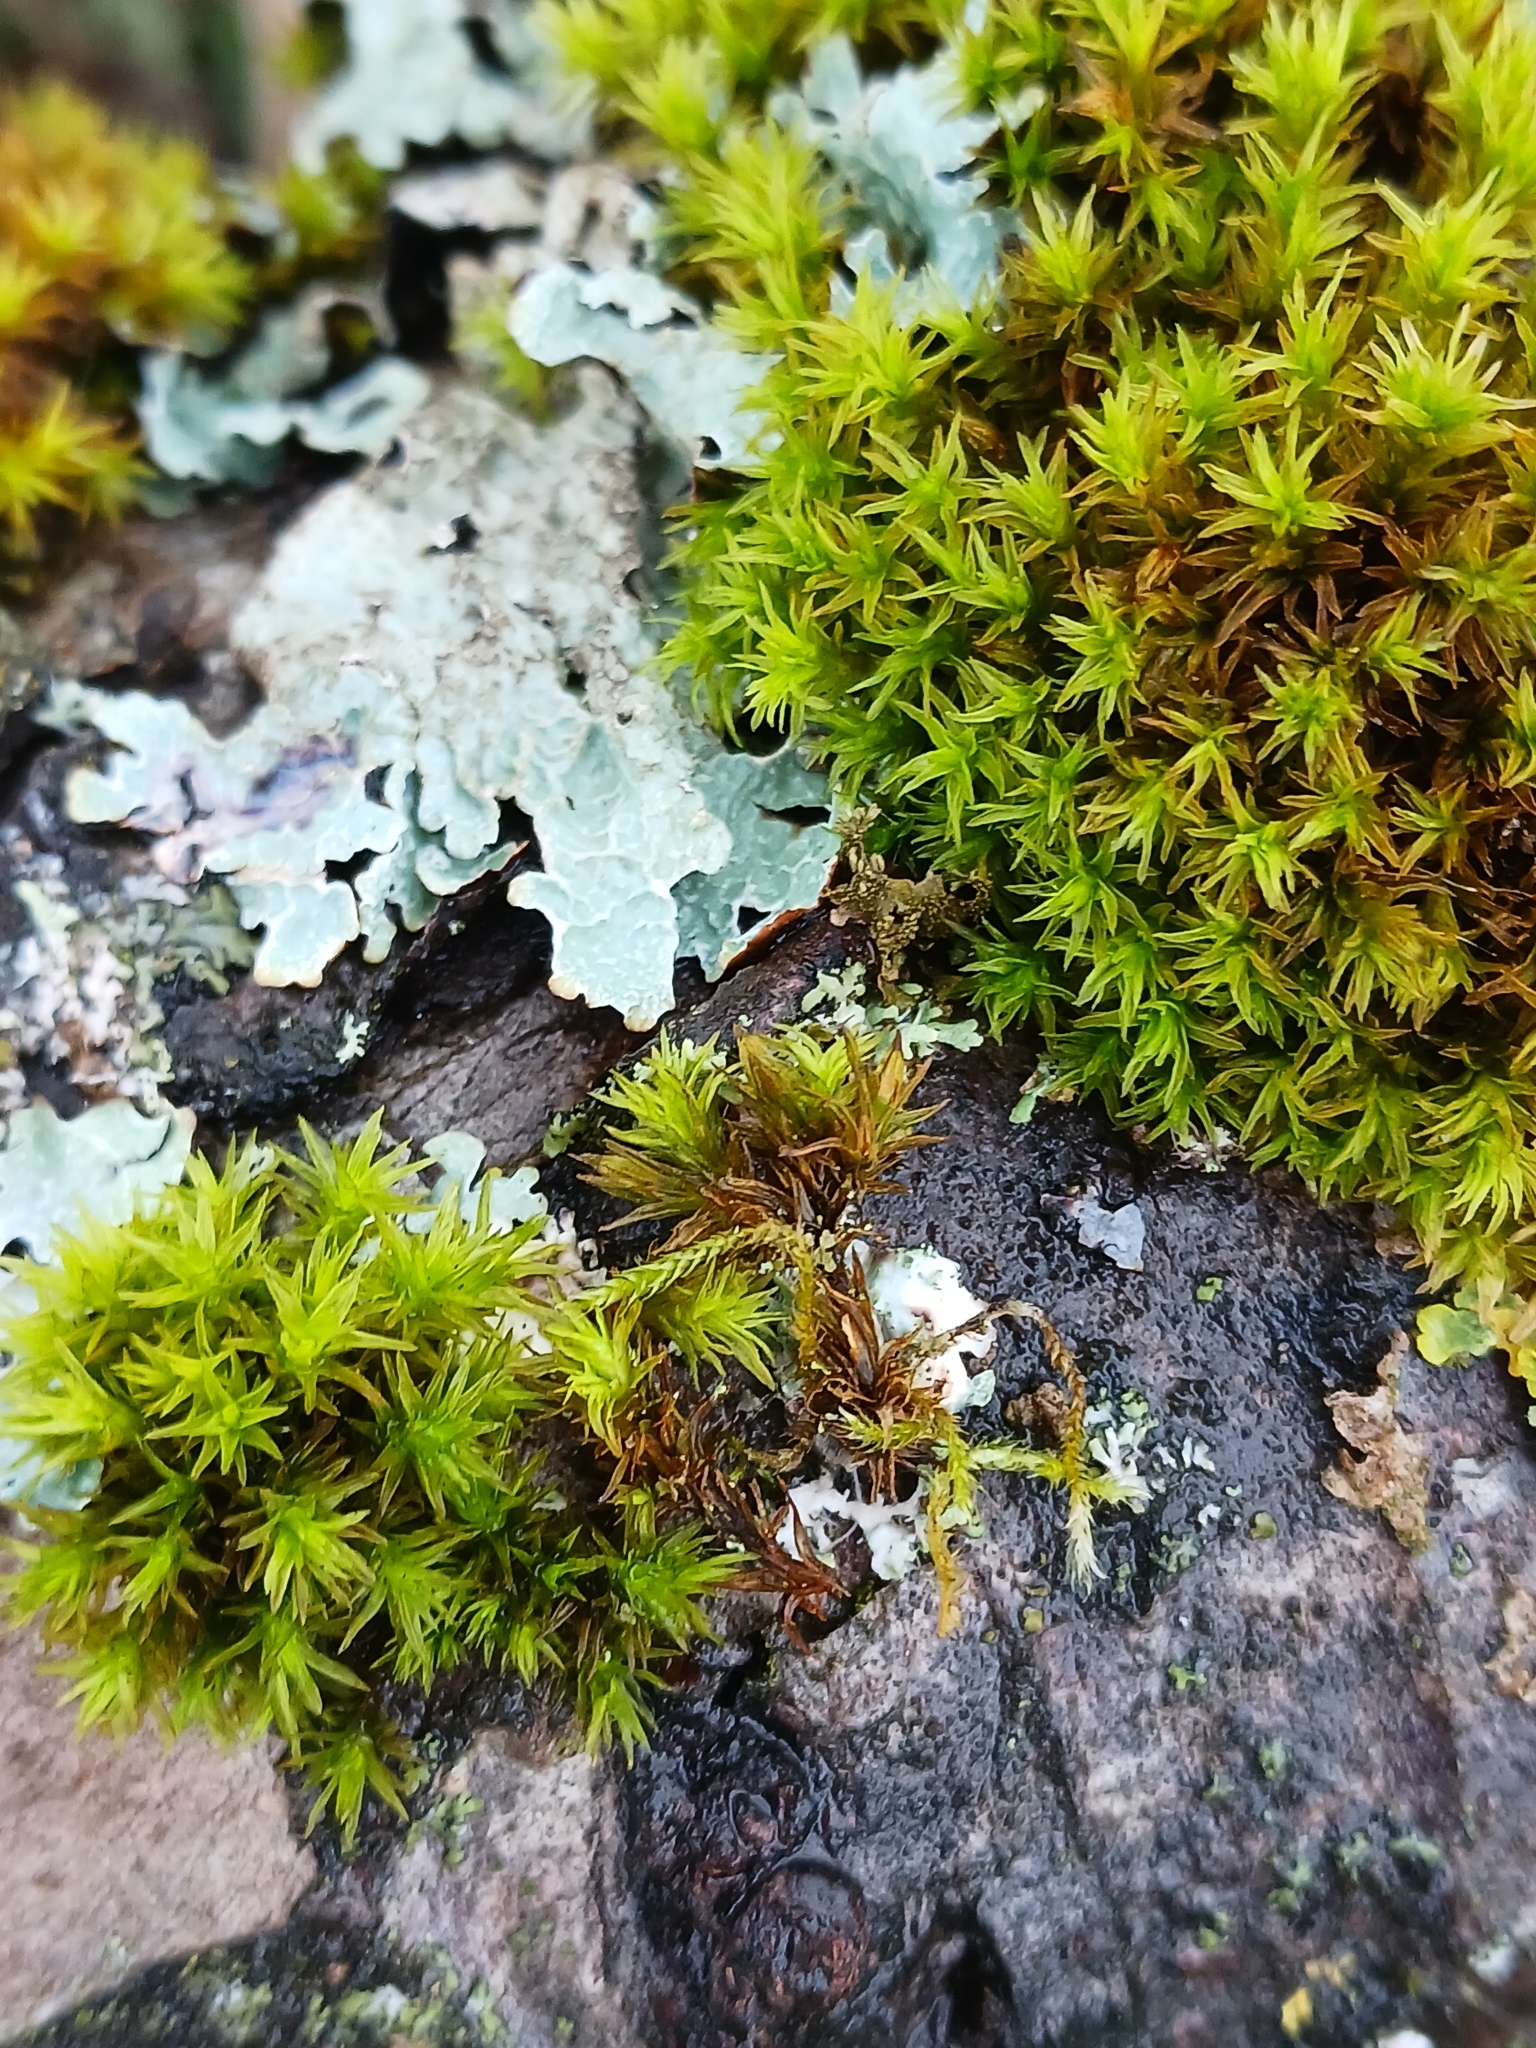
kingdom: Plantae
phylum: Bryophyta
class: Bryopsida
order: Orthotrichales
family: Orthotrichaceae
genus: Lewinskya
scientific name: Lewinskya affinis
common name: Wood bristle-moss
